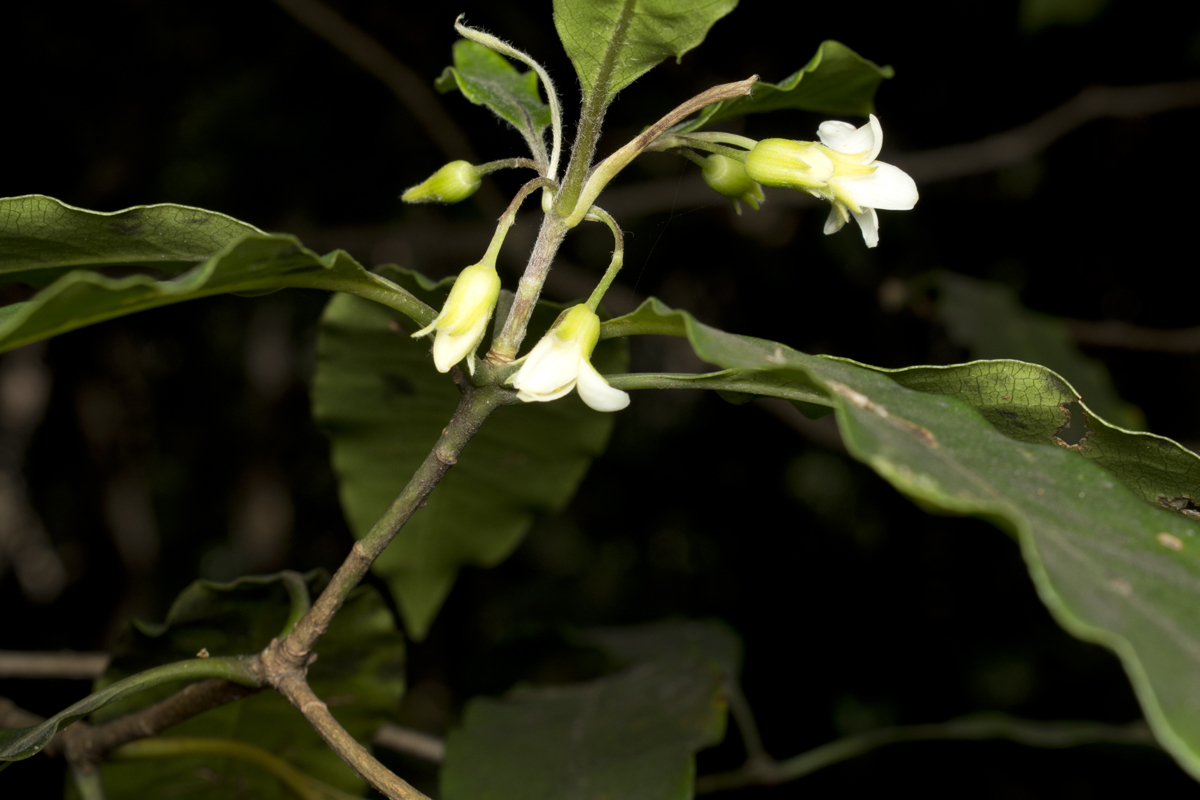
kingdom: Plantae
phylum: Tracheophyta
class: Magnoliopsida
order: Apiales
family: Pittosporaceae
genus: Pittosporum
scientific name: Pittosporum undulatum
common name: Australian cheesewood
